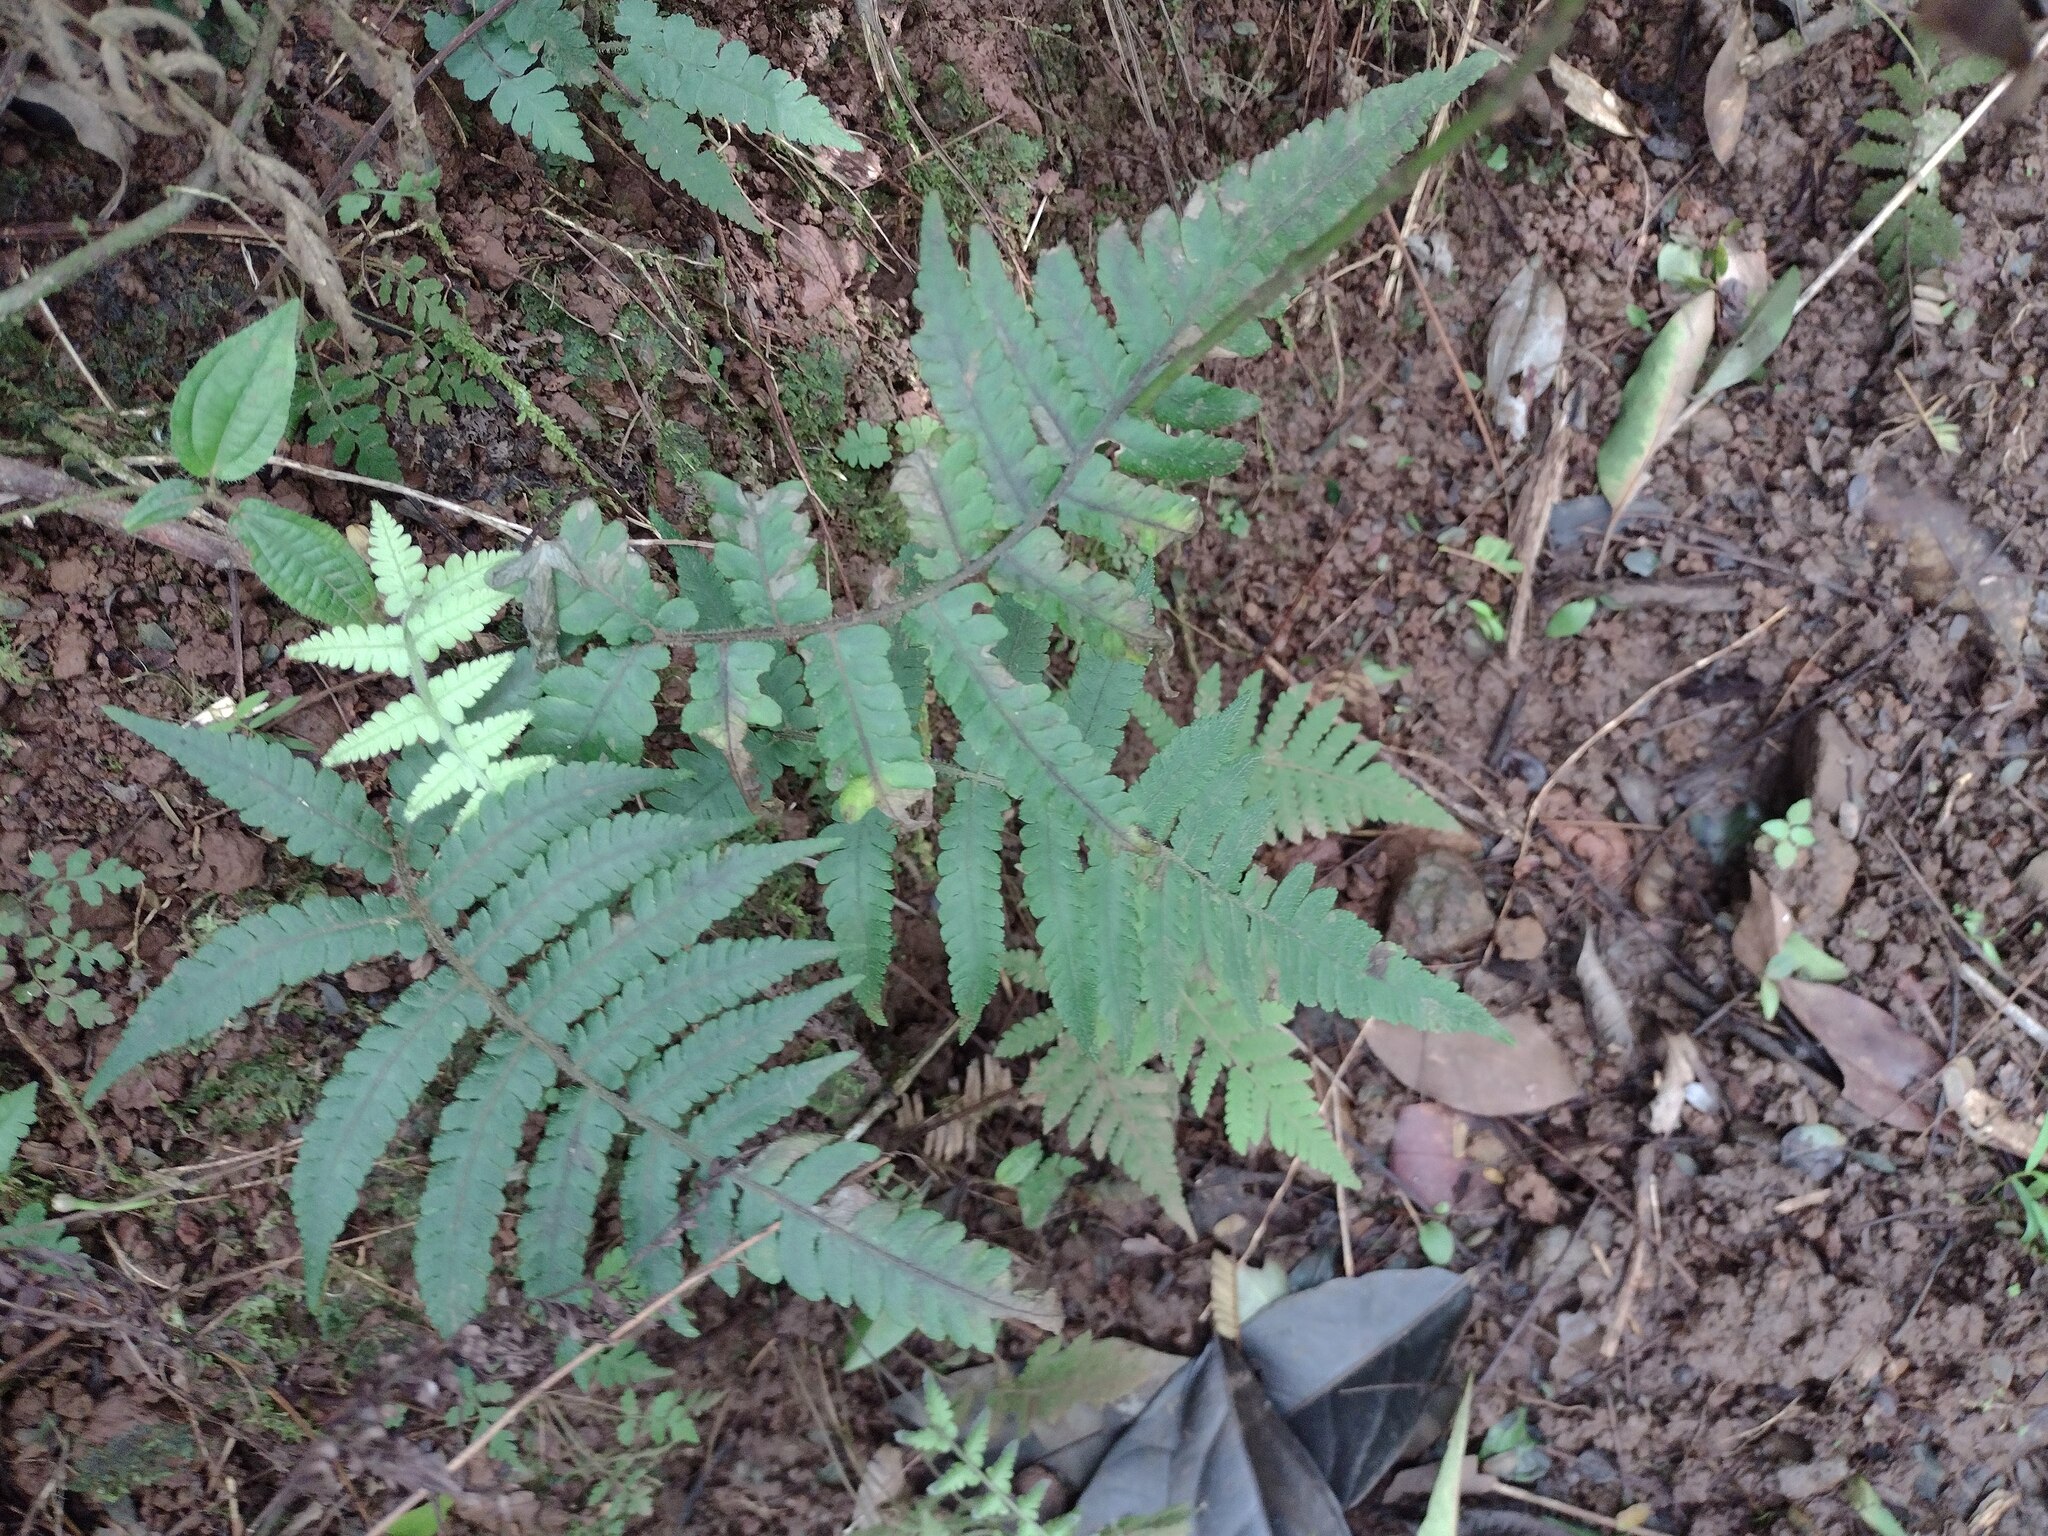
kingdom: Plantae
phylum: Tracheophyta
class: Polypodiopsida
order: Polypodiales
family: Athyriaceae
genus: Deparia
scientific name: Deparia petersenii
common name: Japanese false spleenwort
